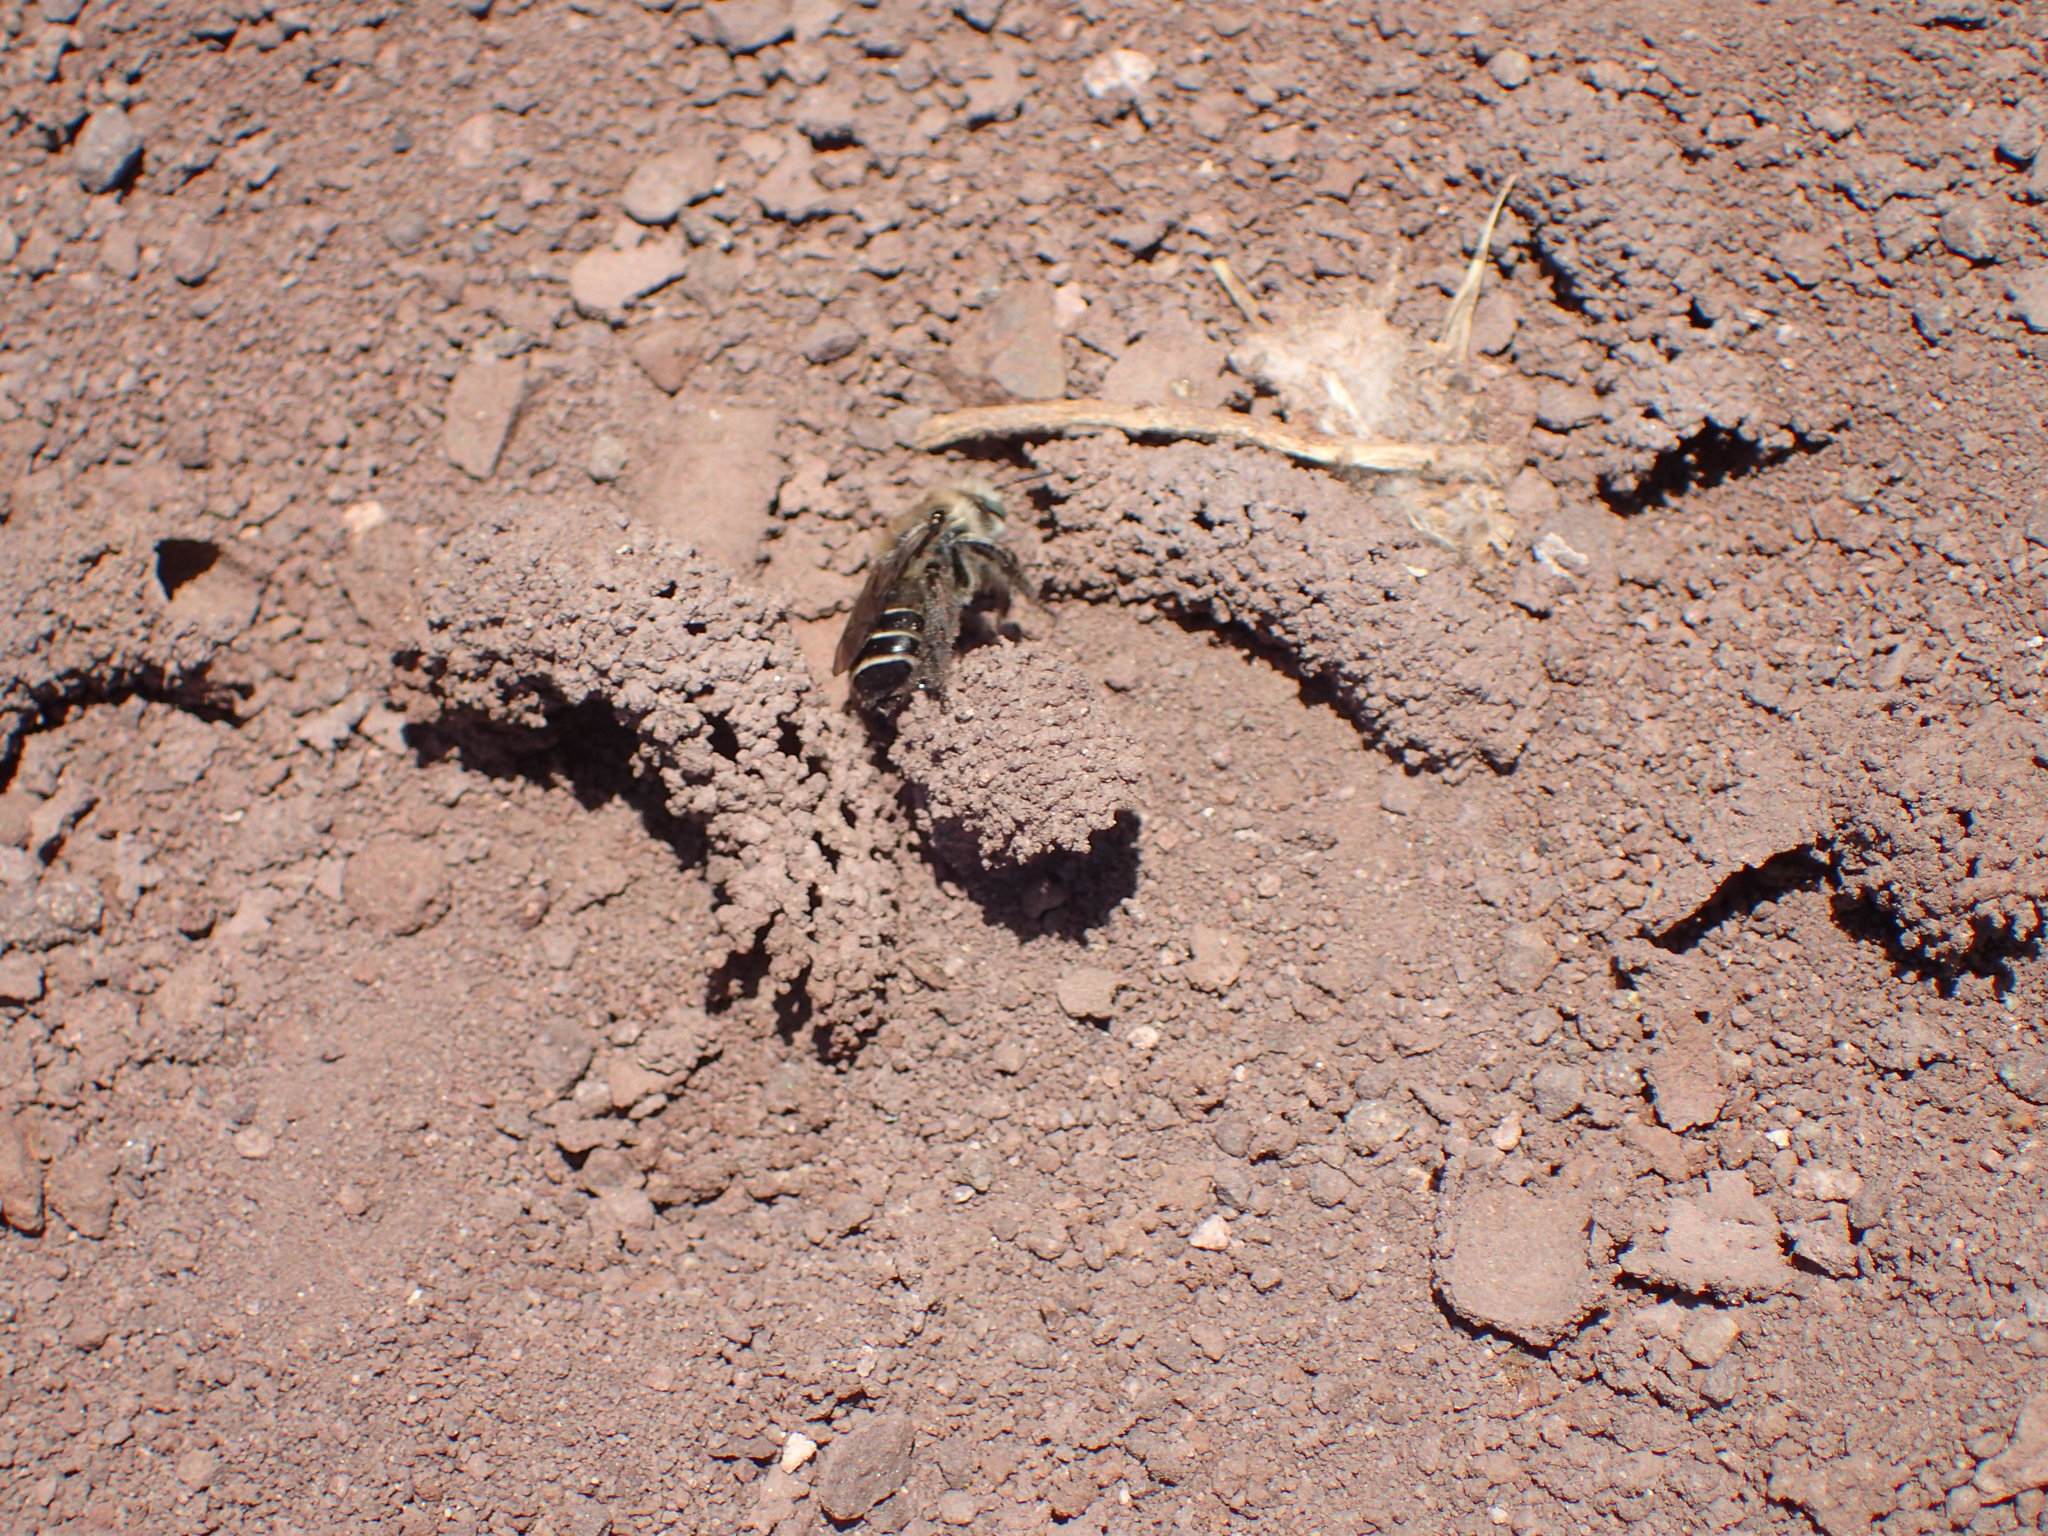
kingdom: Animalia
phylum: Arthropoda
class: Insecta
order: Hymenoptera
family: Apidae
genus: Diadasia
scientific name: Diadasia bituberculata
